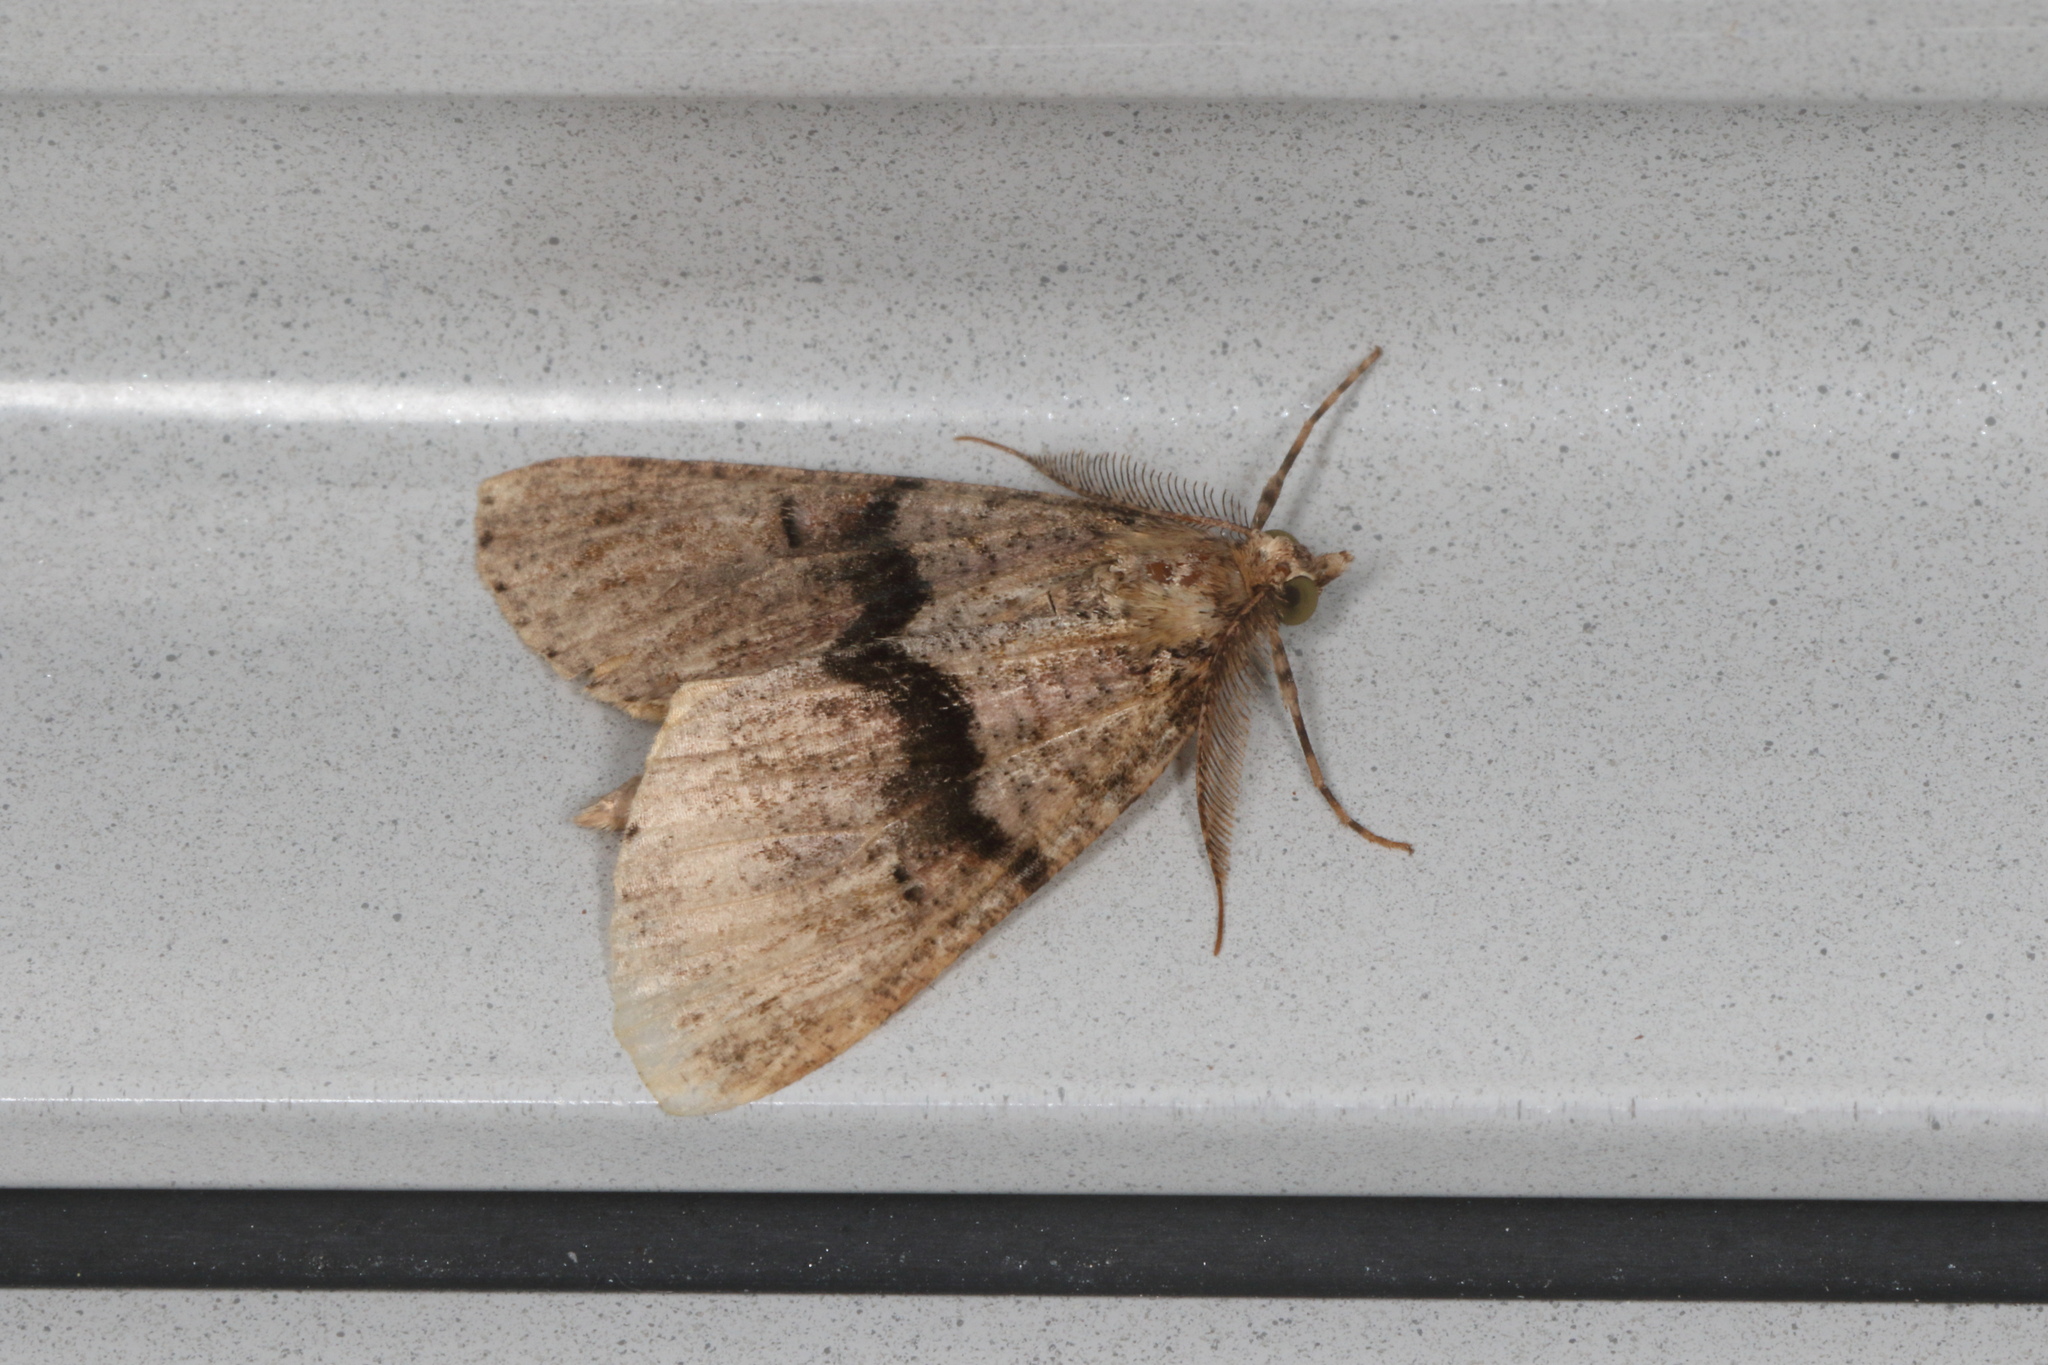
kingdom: Animalia
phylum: Arthropoda
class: Insecta
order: Lepidoptera
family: Geometridae
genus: Pseudocoremia
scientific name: Pseudocoremia suavis
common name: Common forest looper
